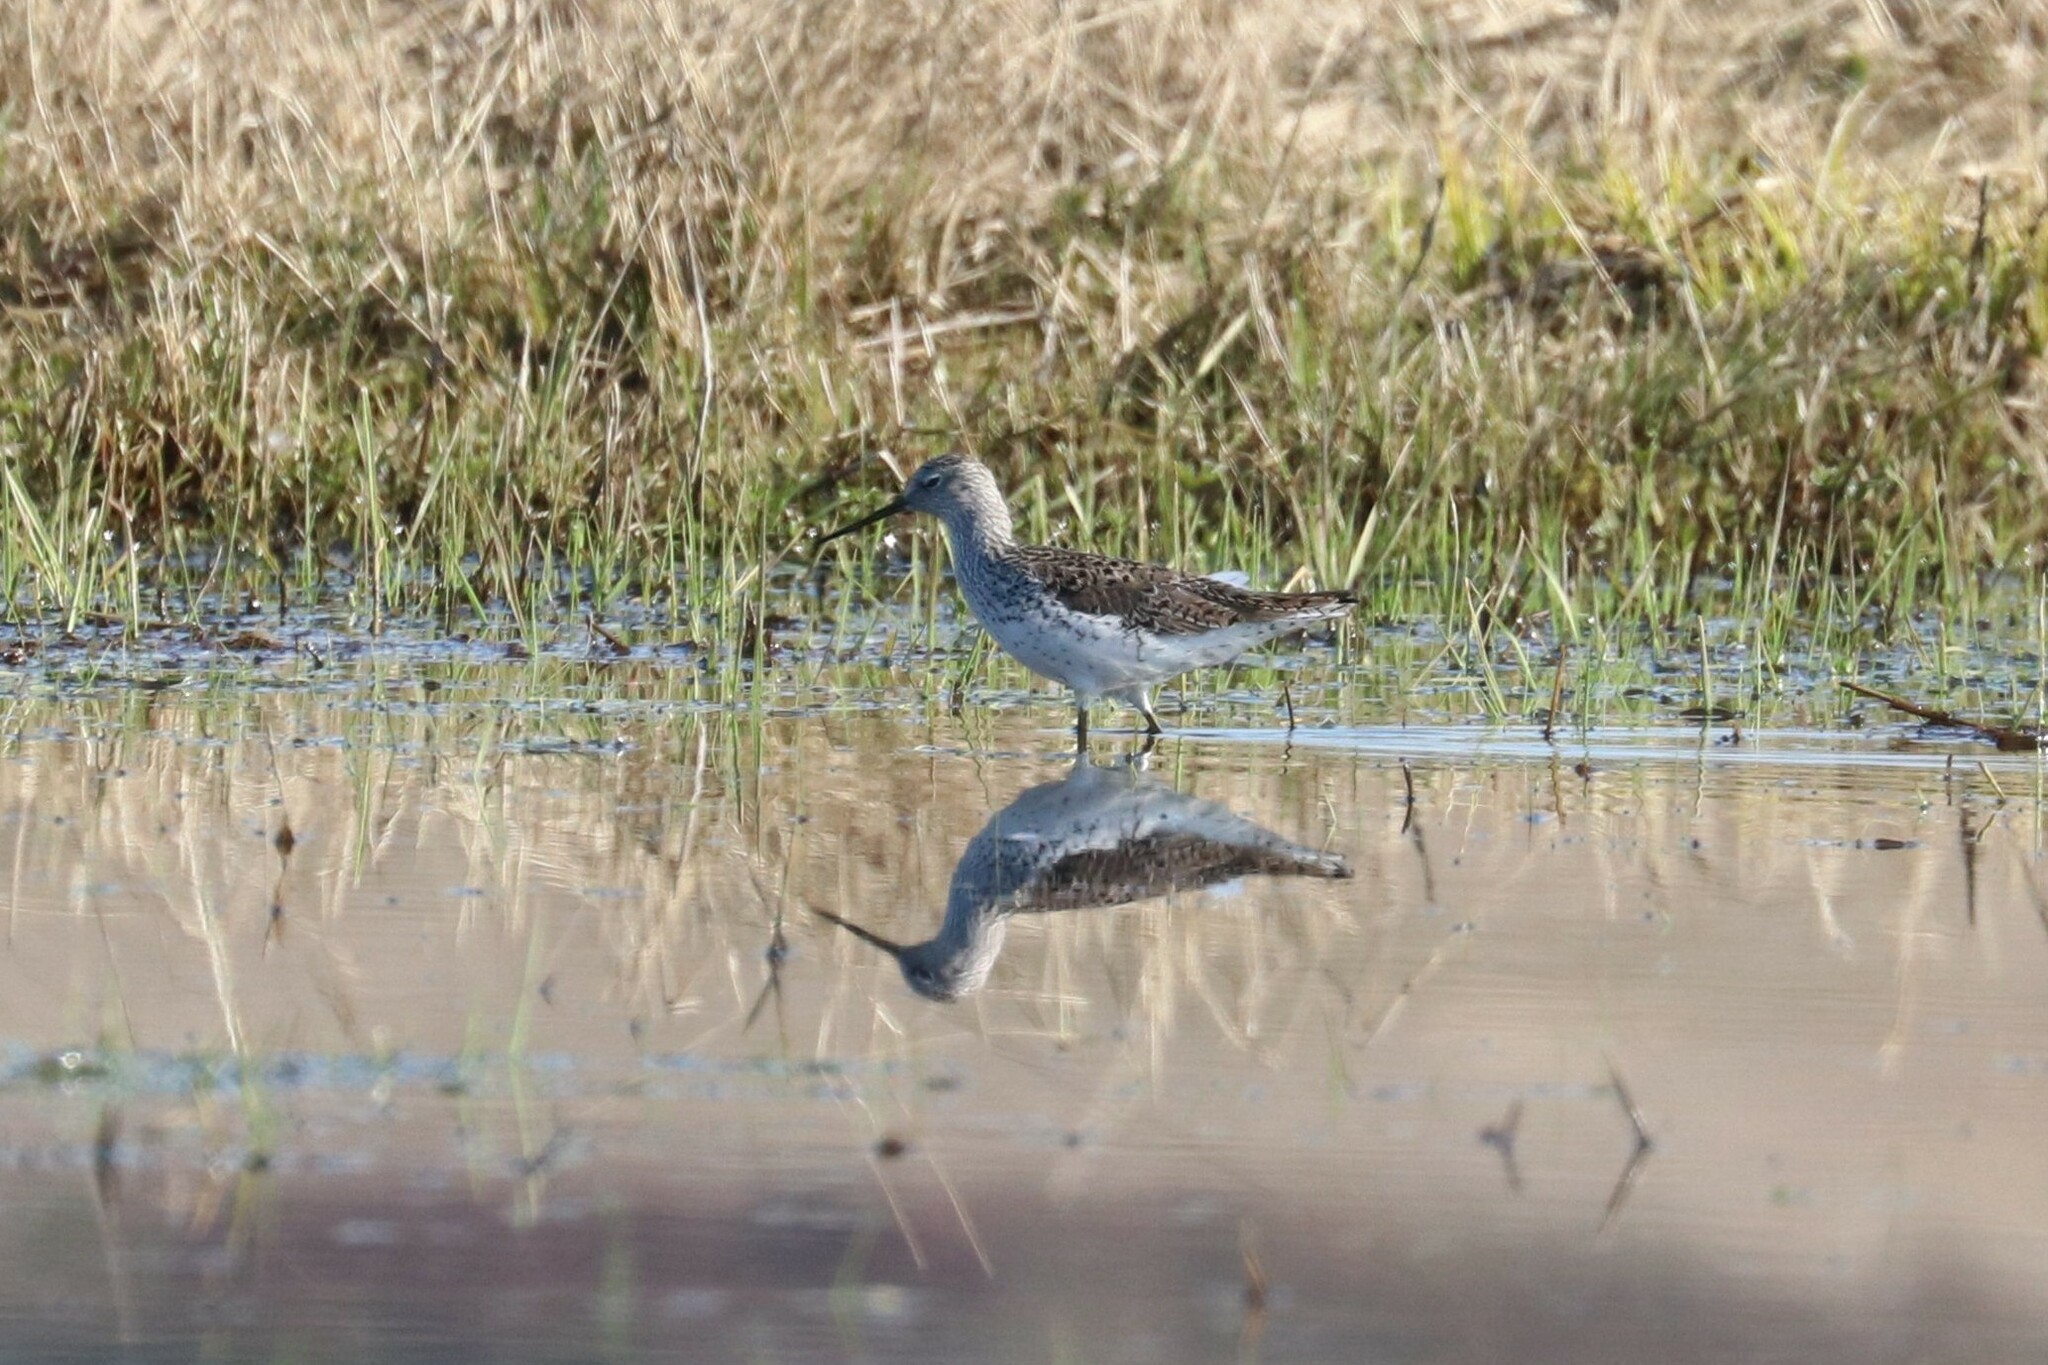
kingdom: Animalia
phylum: Chordata
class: Aves
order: Charadriiformes
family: Scolopacidae
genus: Tringa
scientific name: Tringa stagnatilis
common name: Marsh sandpiper
